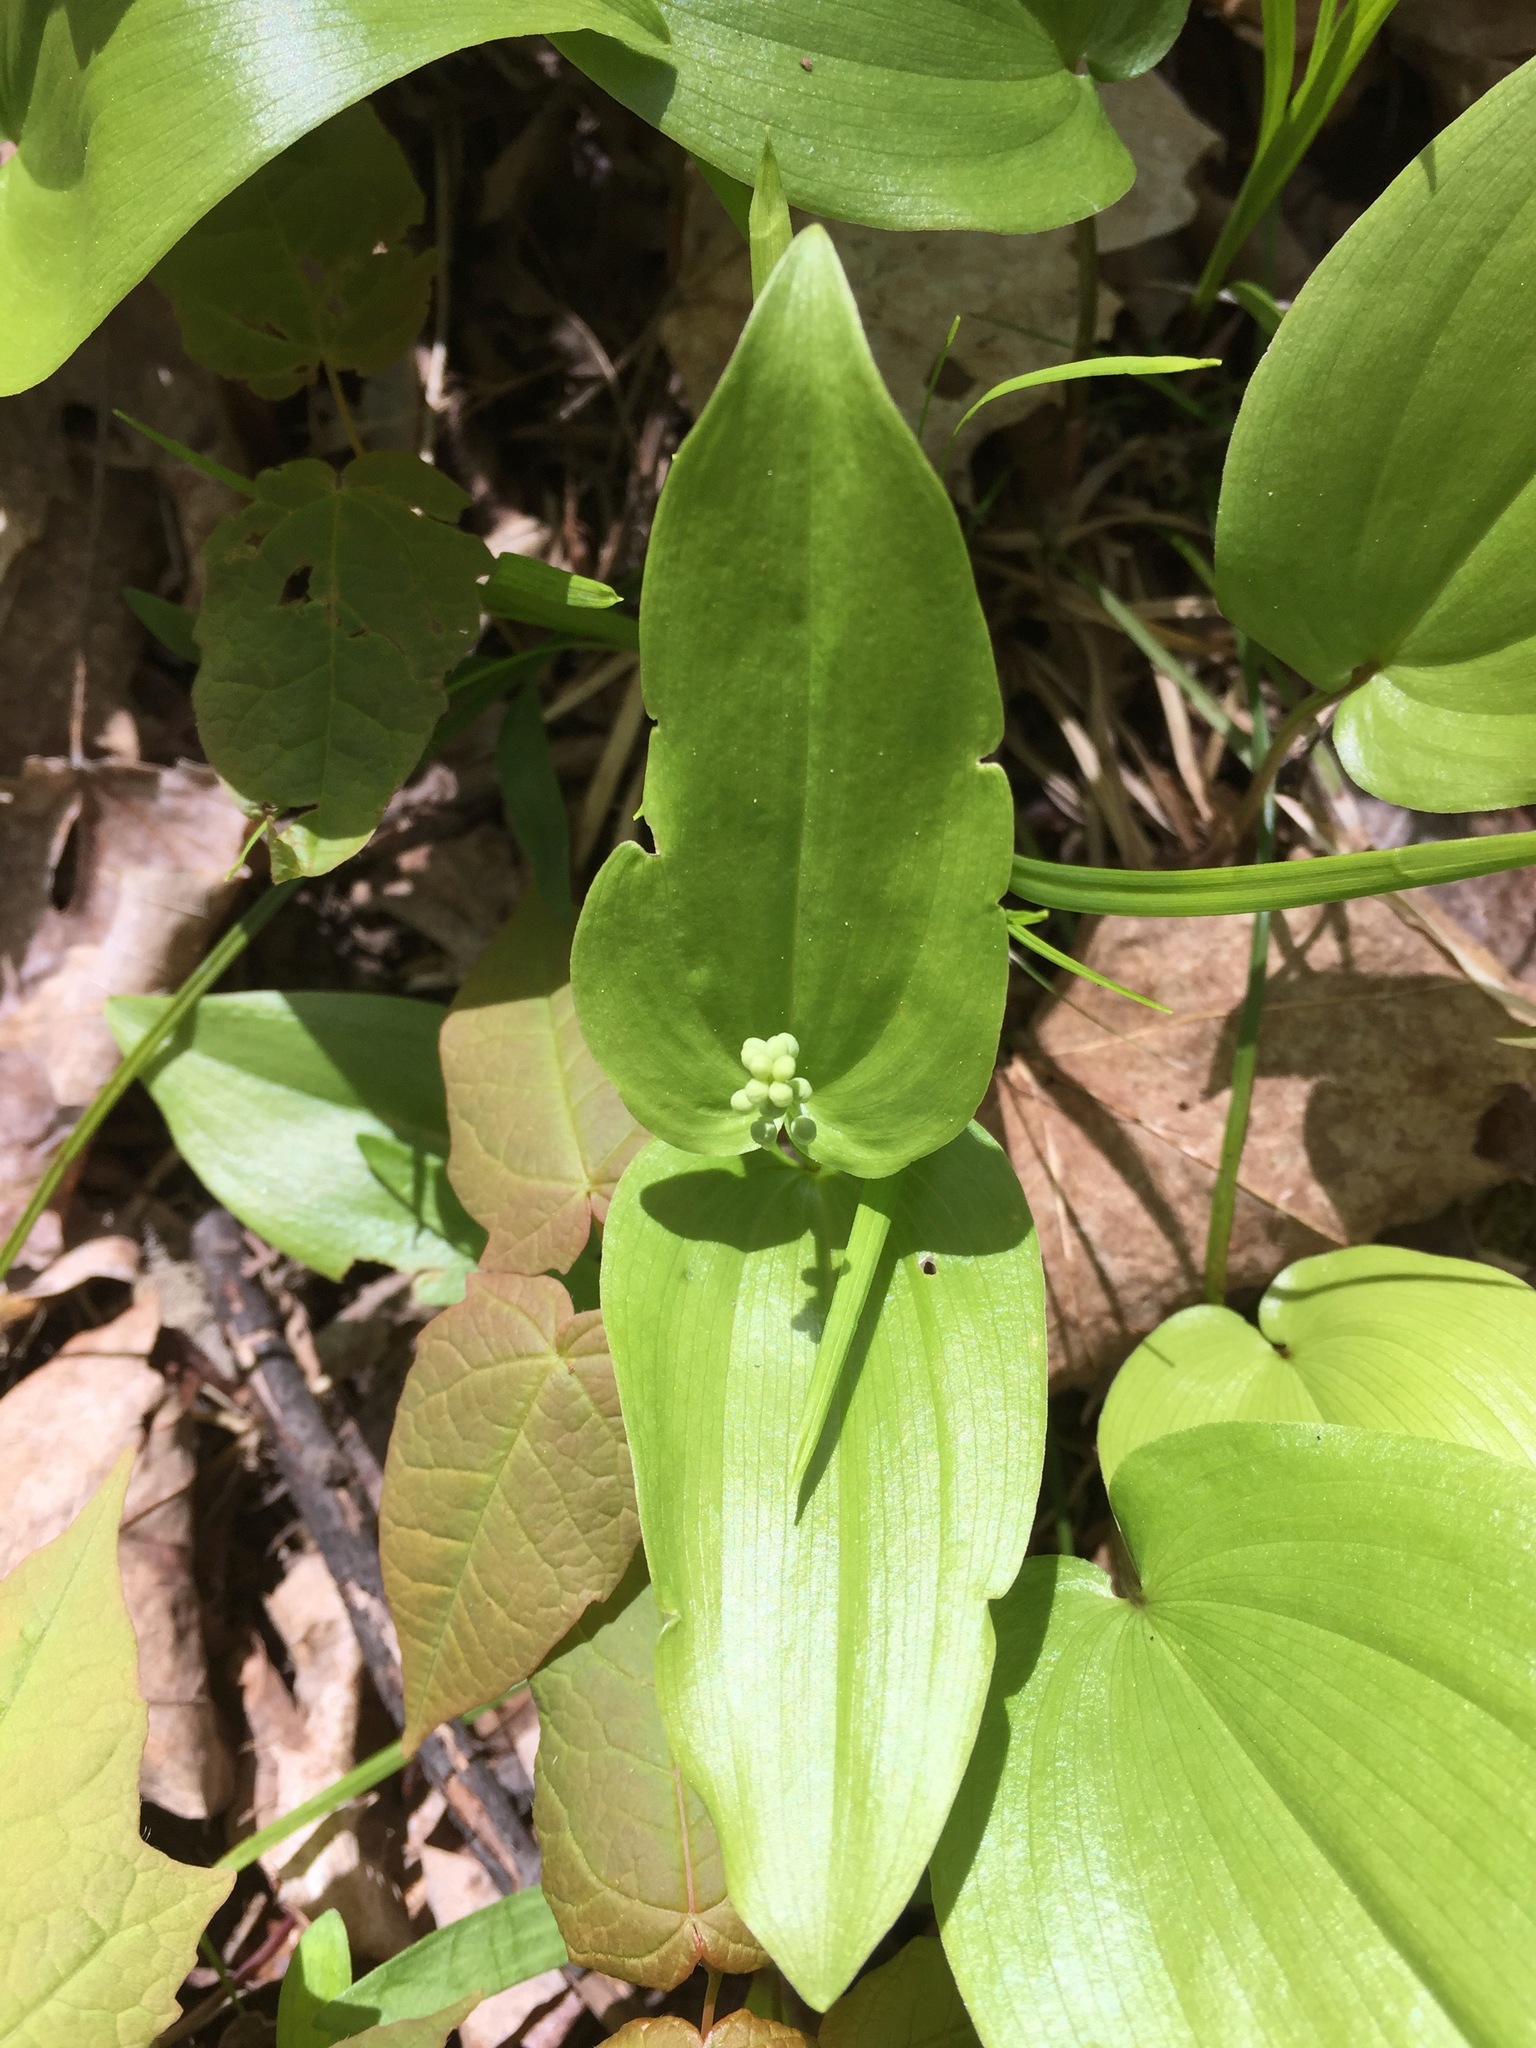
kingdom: Plantae
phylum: Tracheophyta
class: Liliopsida
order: Asparagales
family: Asparagaceae
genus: Maianthemum
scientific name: Maianthemum canadense
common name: False lily-of-the-valley
